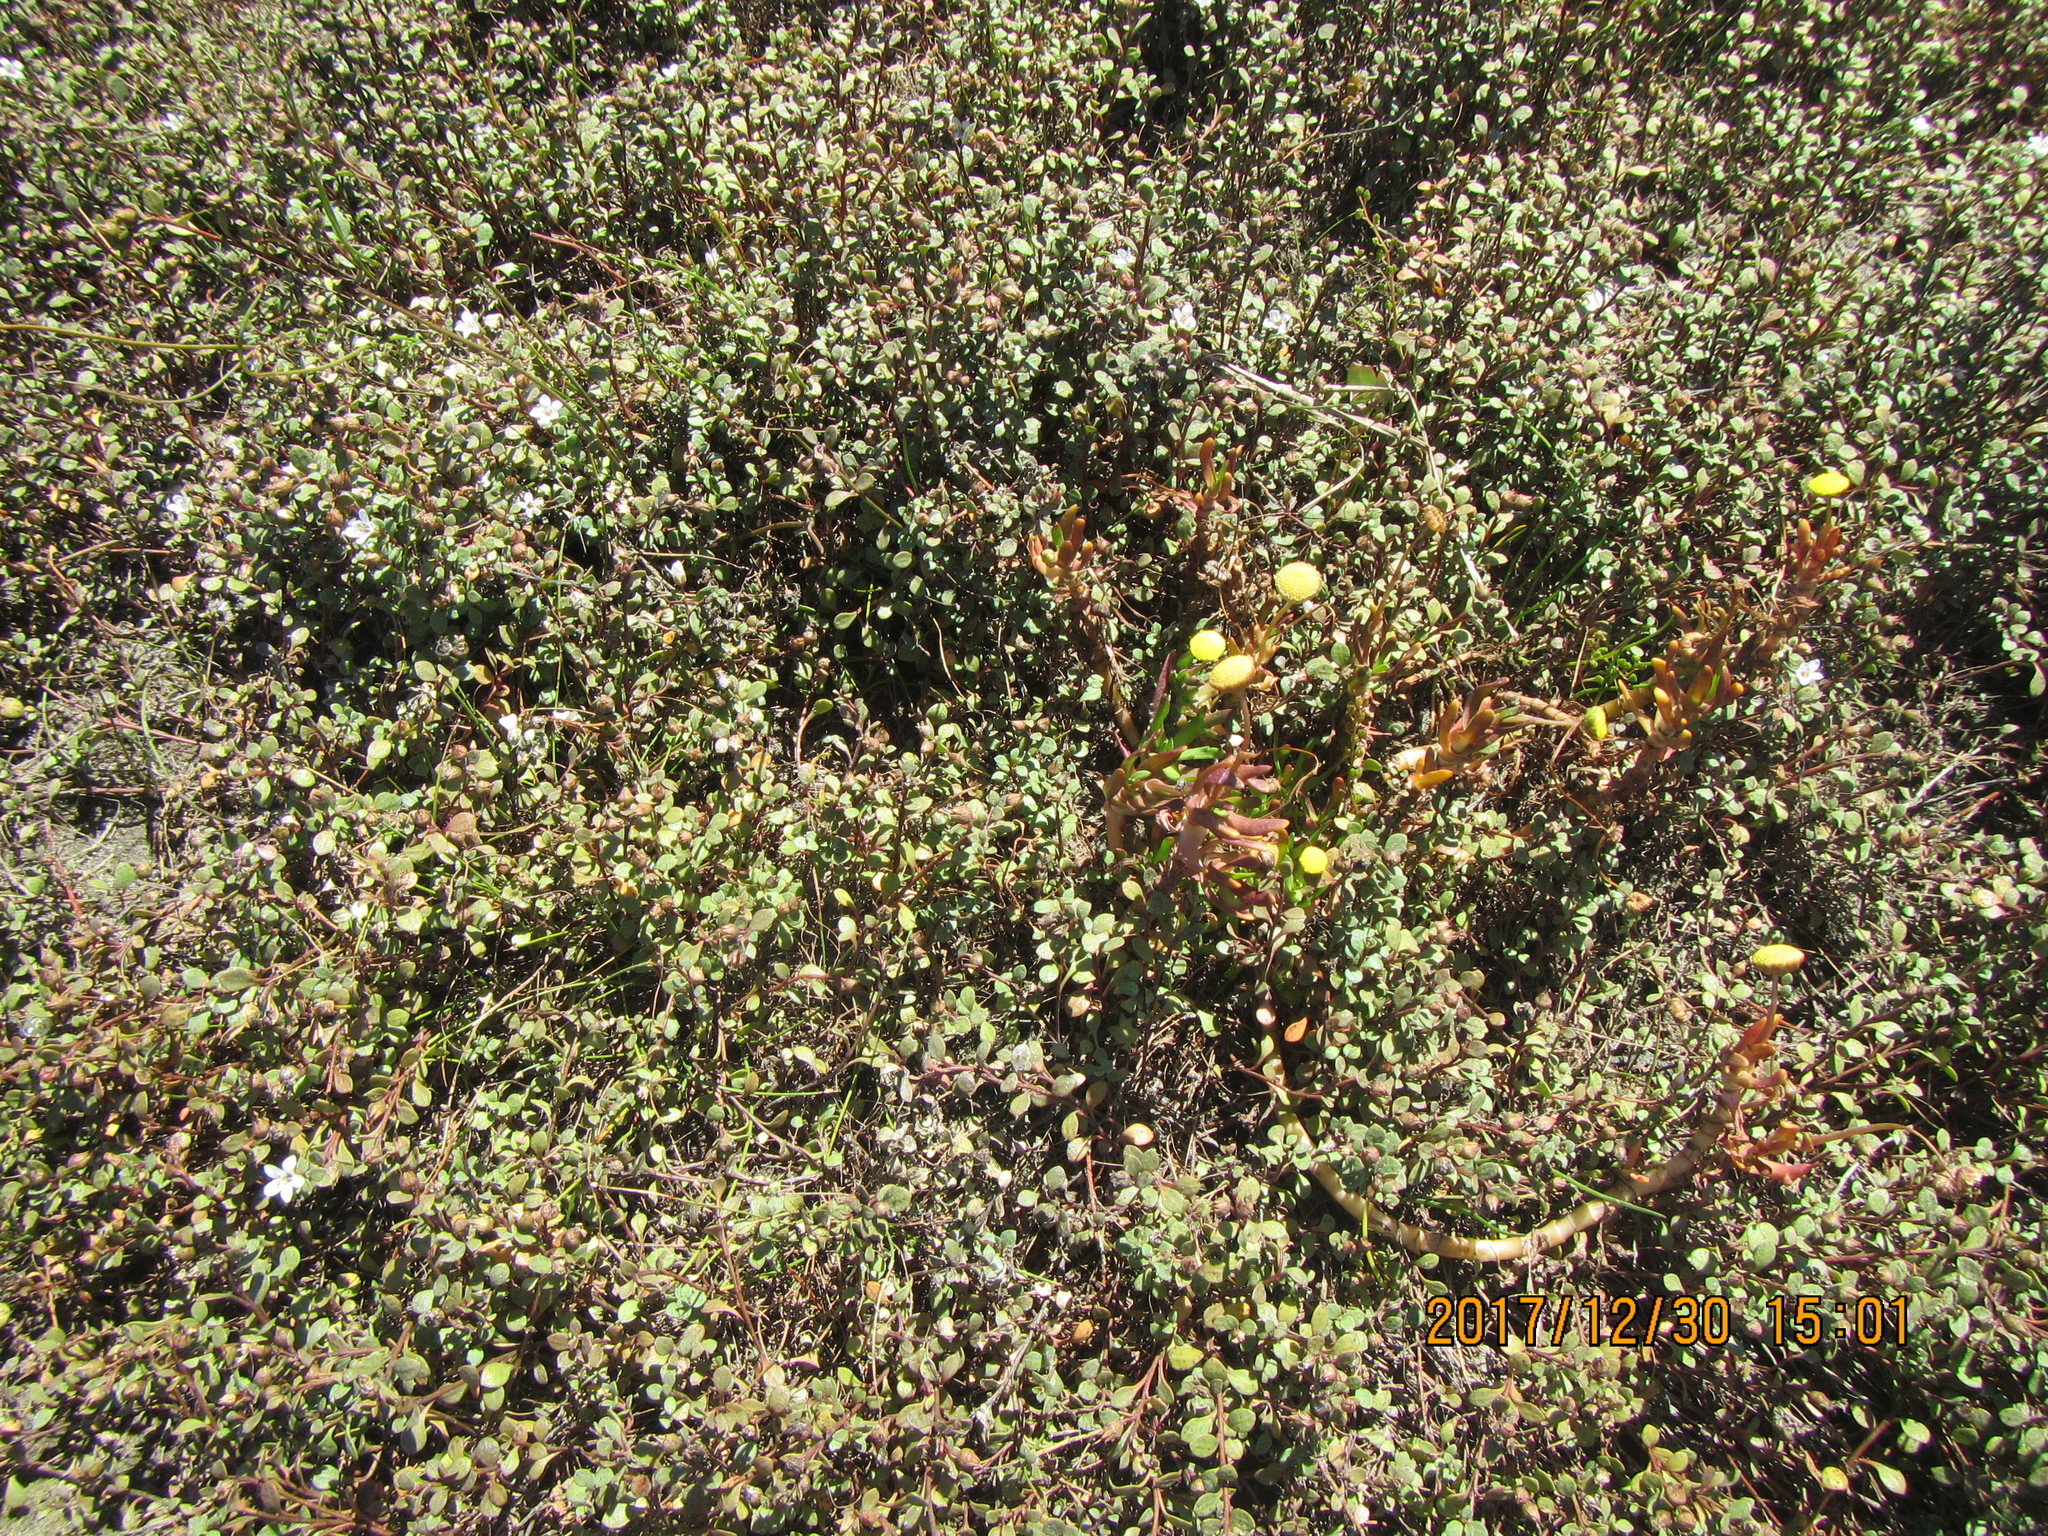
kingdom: Plantae
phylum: Tracheophyta
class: Magnoliopsida
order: Asterales
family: Asteraceae
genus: Cotula
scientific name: Cotula coronopifolia
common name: Buttonweed
